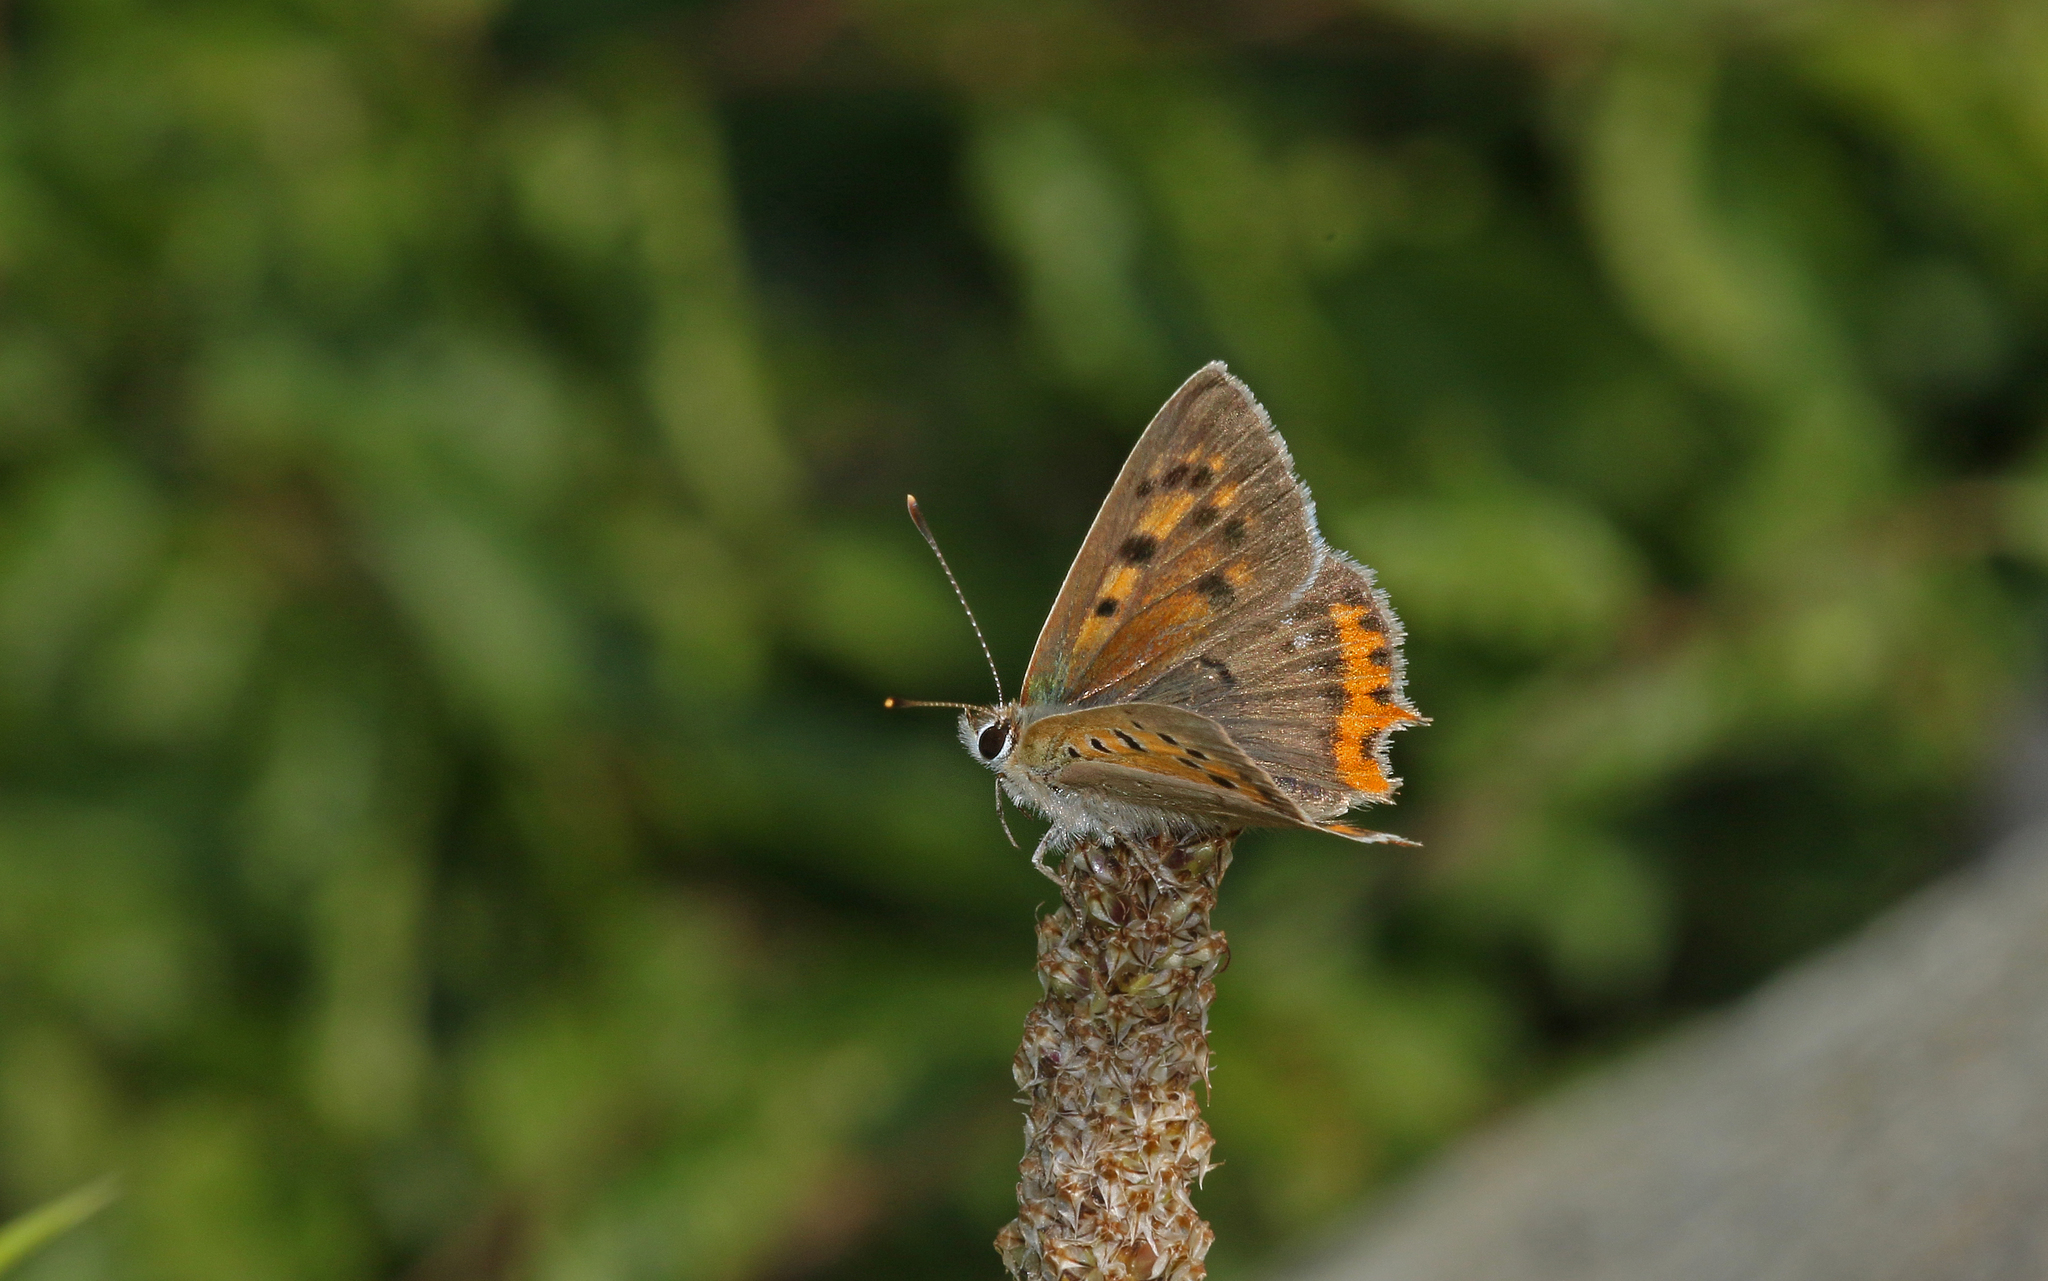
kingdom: Animalia
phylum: Arthropoda
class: Insecta
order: Lepidoptera
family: Lycaenidae
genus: Lycaena
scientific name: Lycaena phlaeas
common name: Small copper
